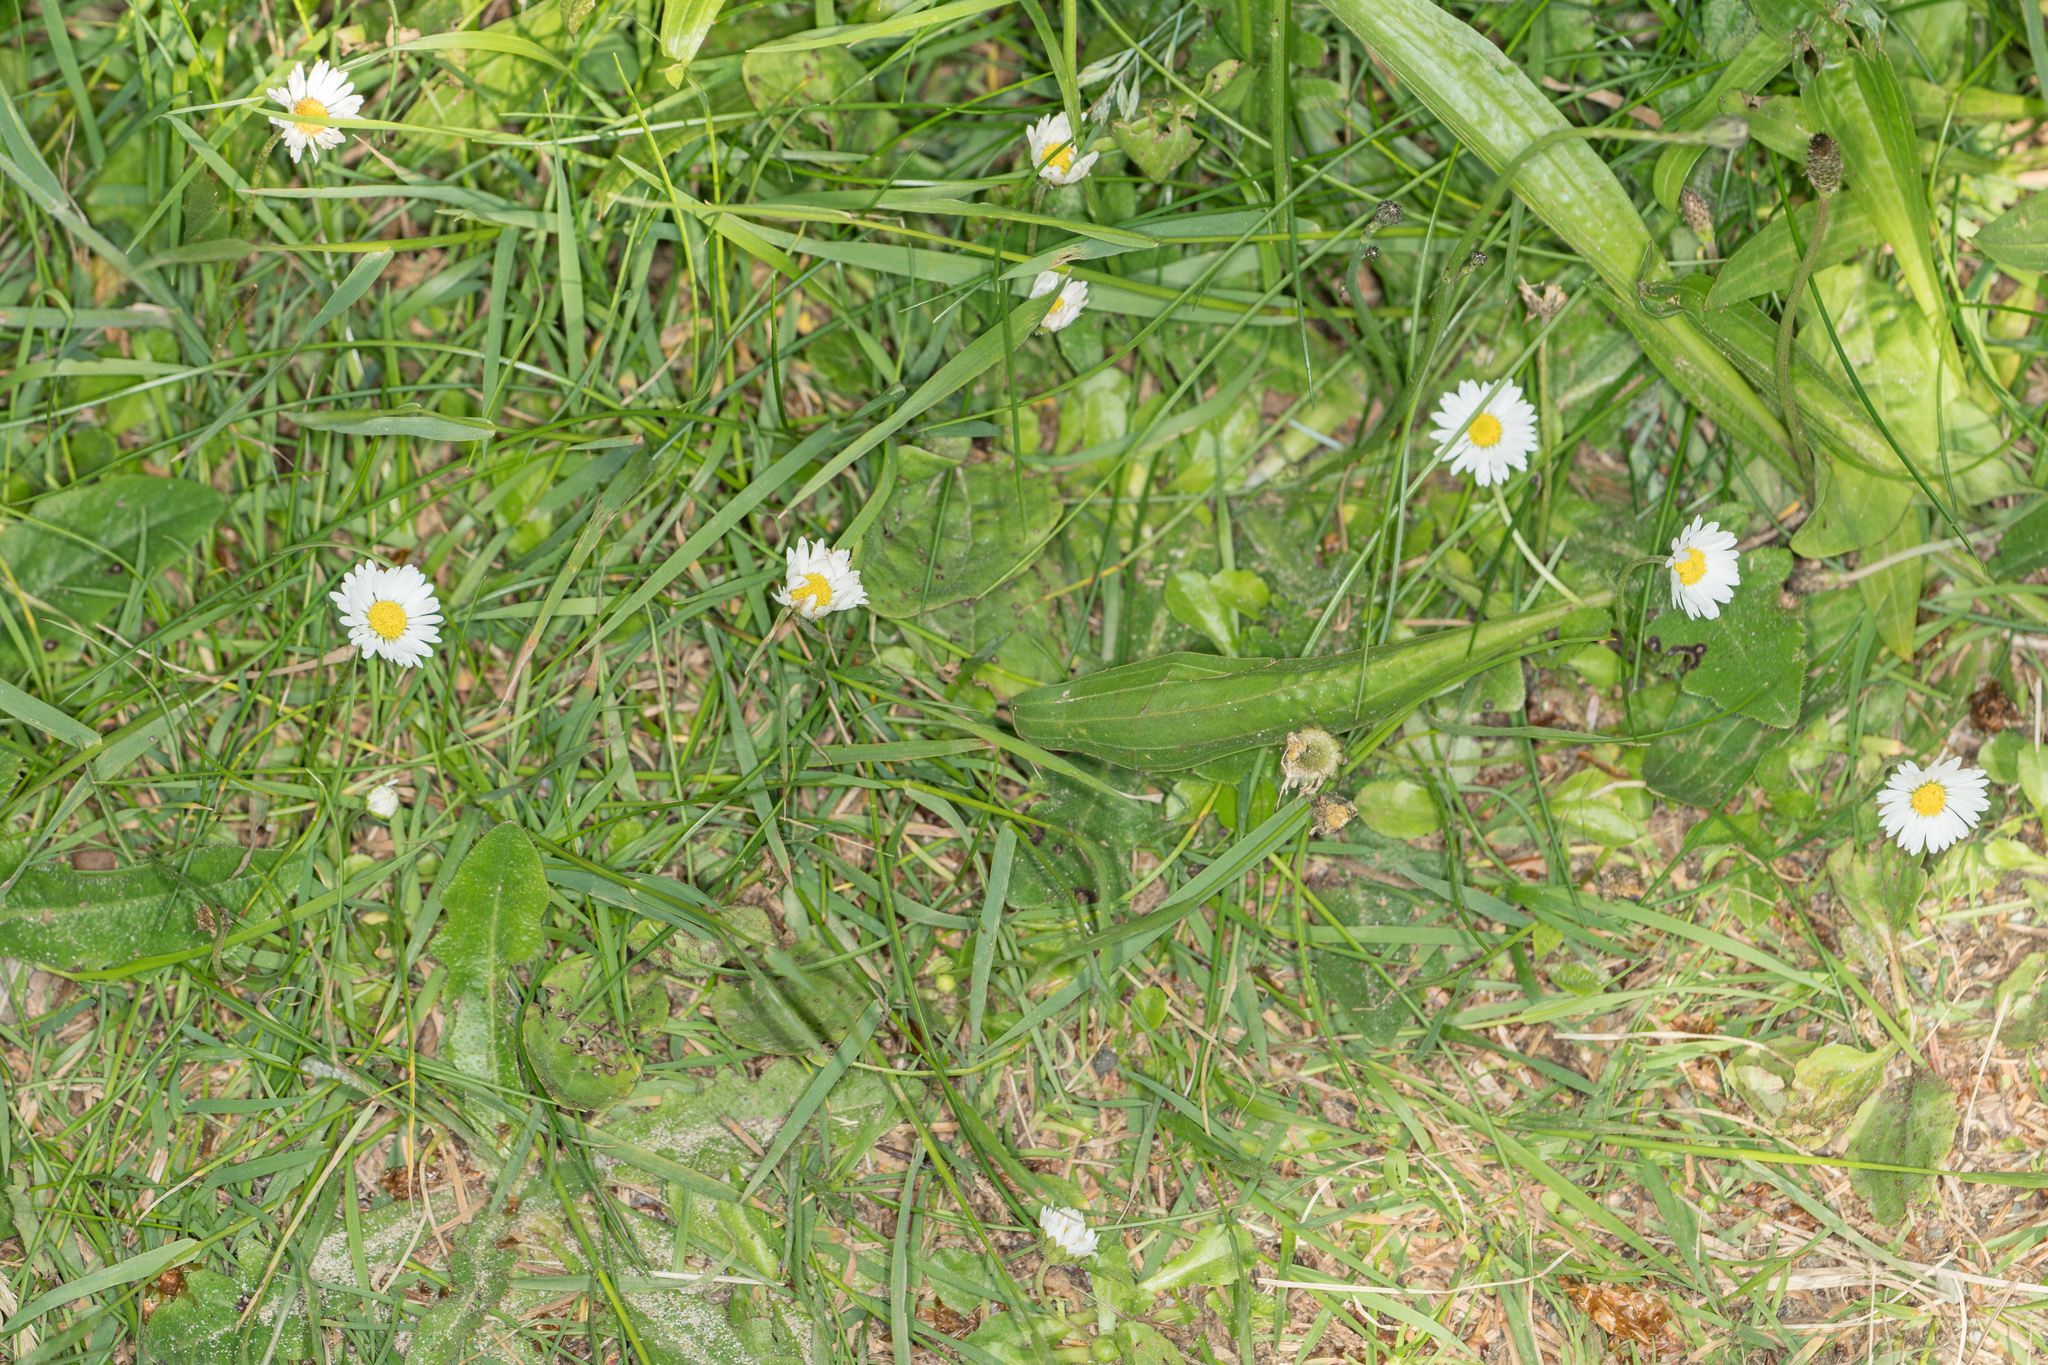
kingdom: Plantae
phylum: Tracheophyta
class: Magnoliopsida
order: Asterales
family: Asteraceae
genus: Bellis
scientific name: Bellis perennis
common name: Lawndaisy
